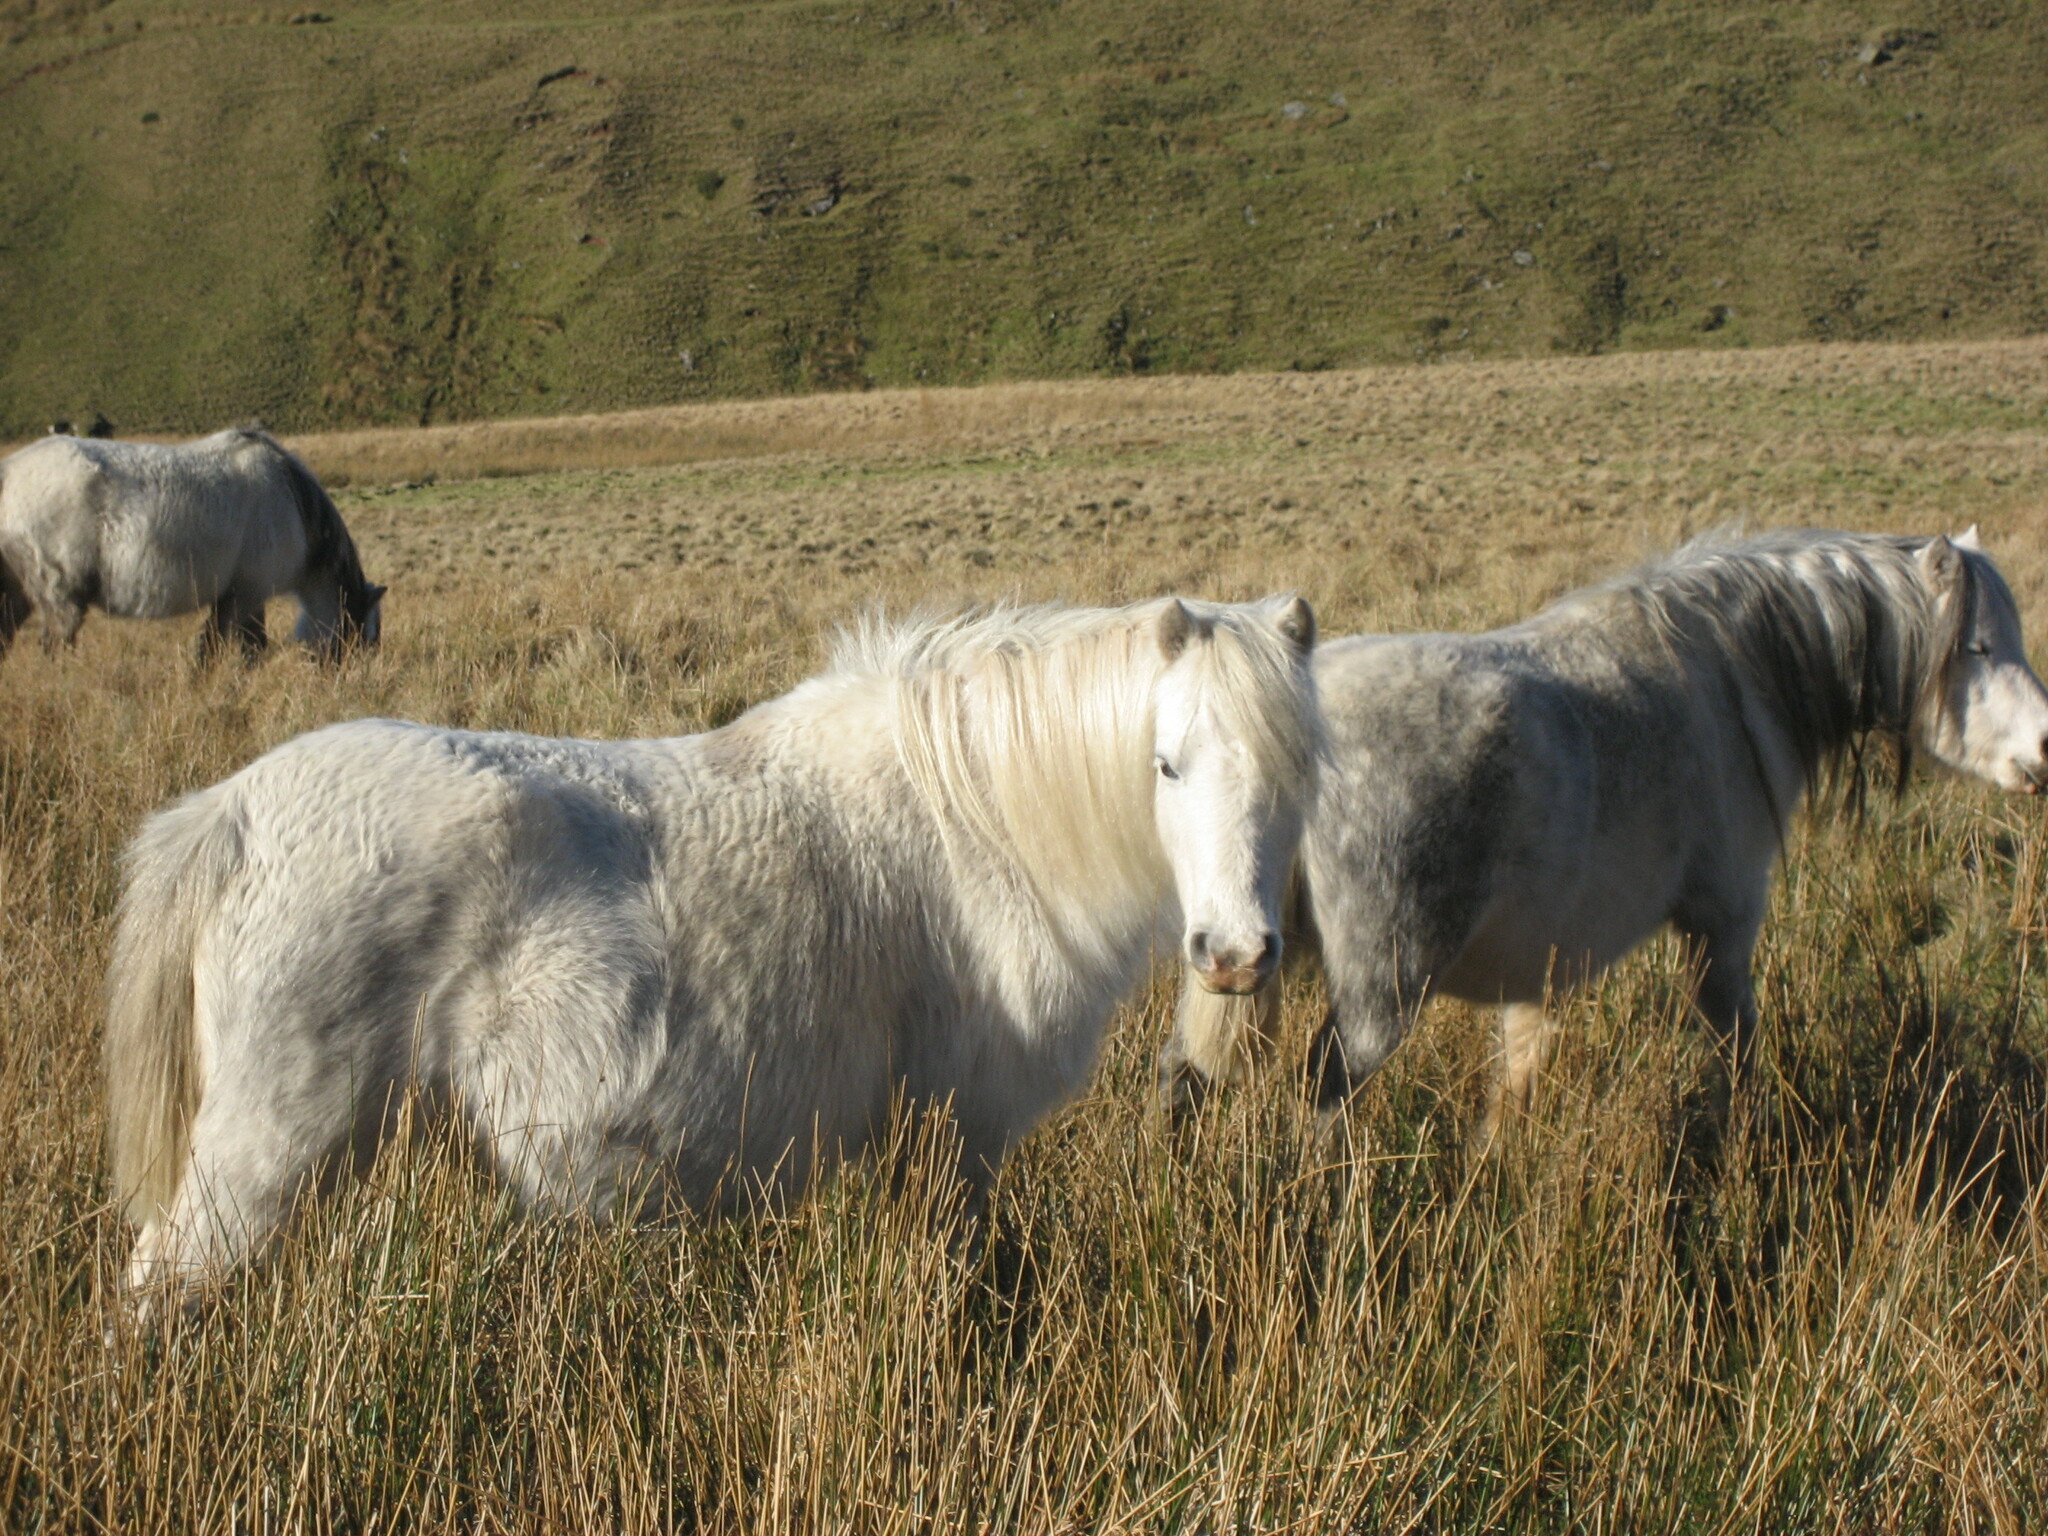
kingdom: Animalia
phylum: Chordata
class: Mammalia
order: Perissodactyla
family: Equidae
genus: Equus
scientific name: Equus caballus
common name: Horse
